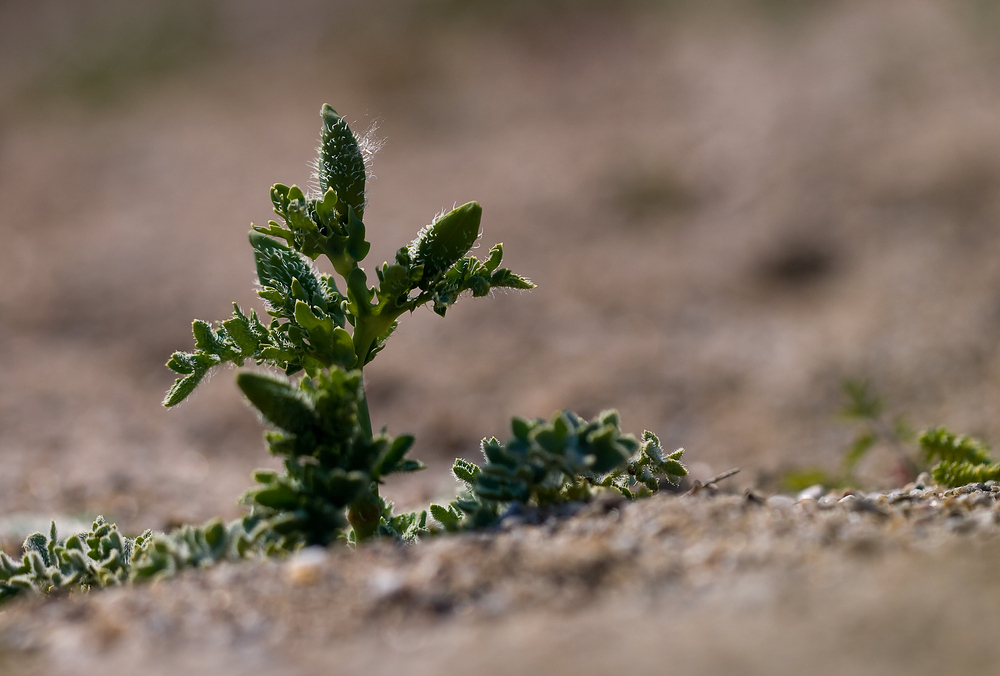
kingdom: Plantae
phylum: Tracheophyta
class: Magnoliopsida
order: Ranunculales
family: Papaveraceae
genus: Glaucium
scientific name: Glaucium flavum
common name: Yellow horned-poppy
